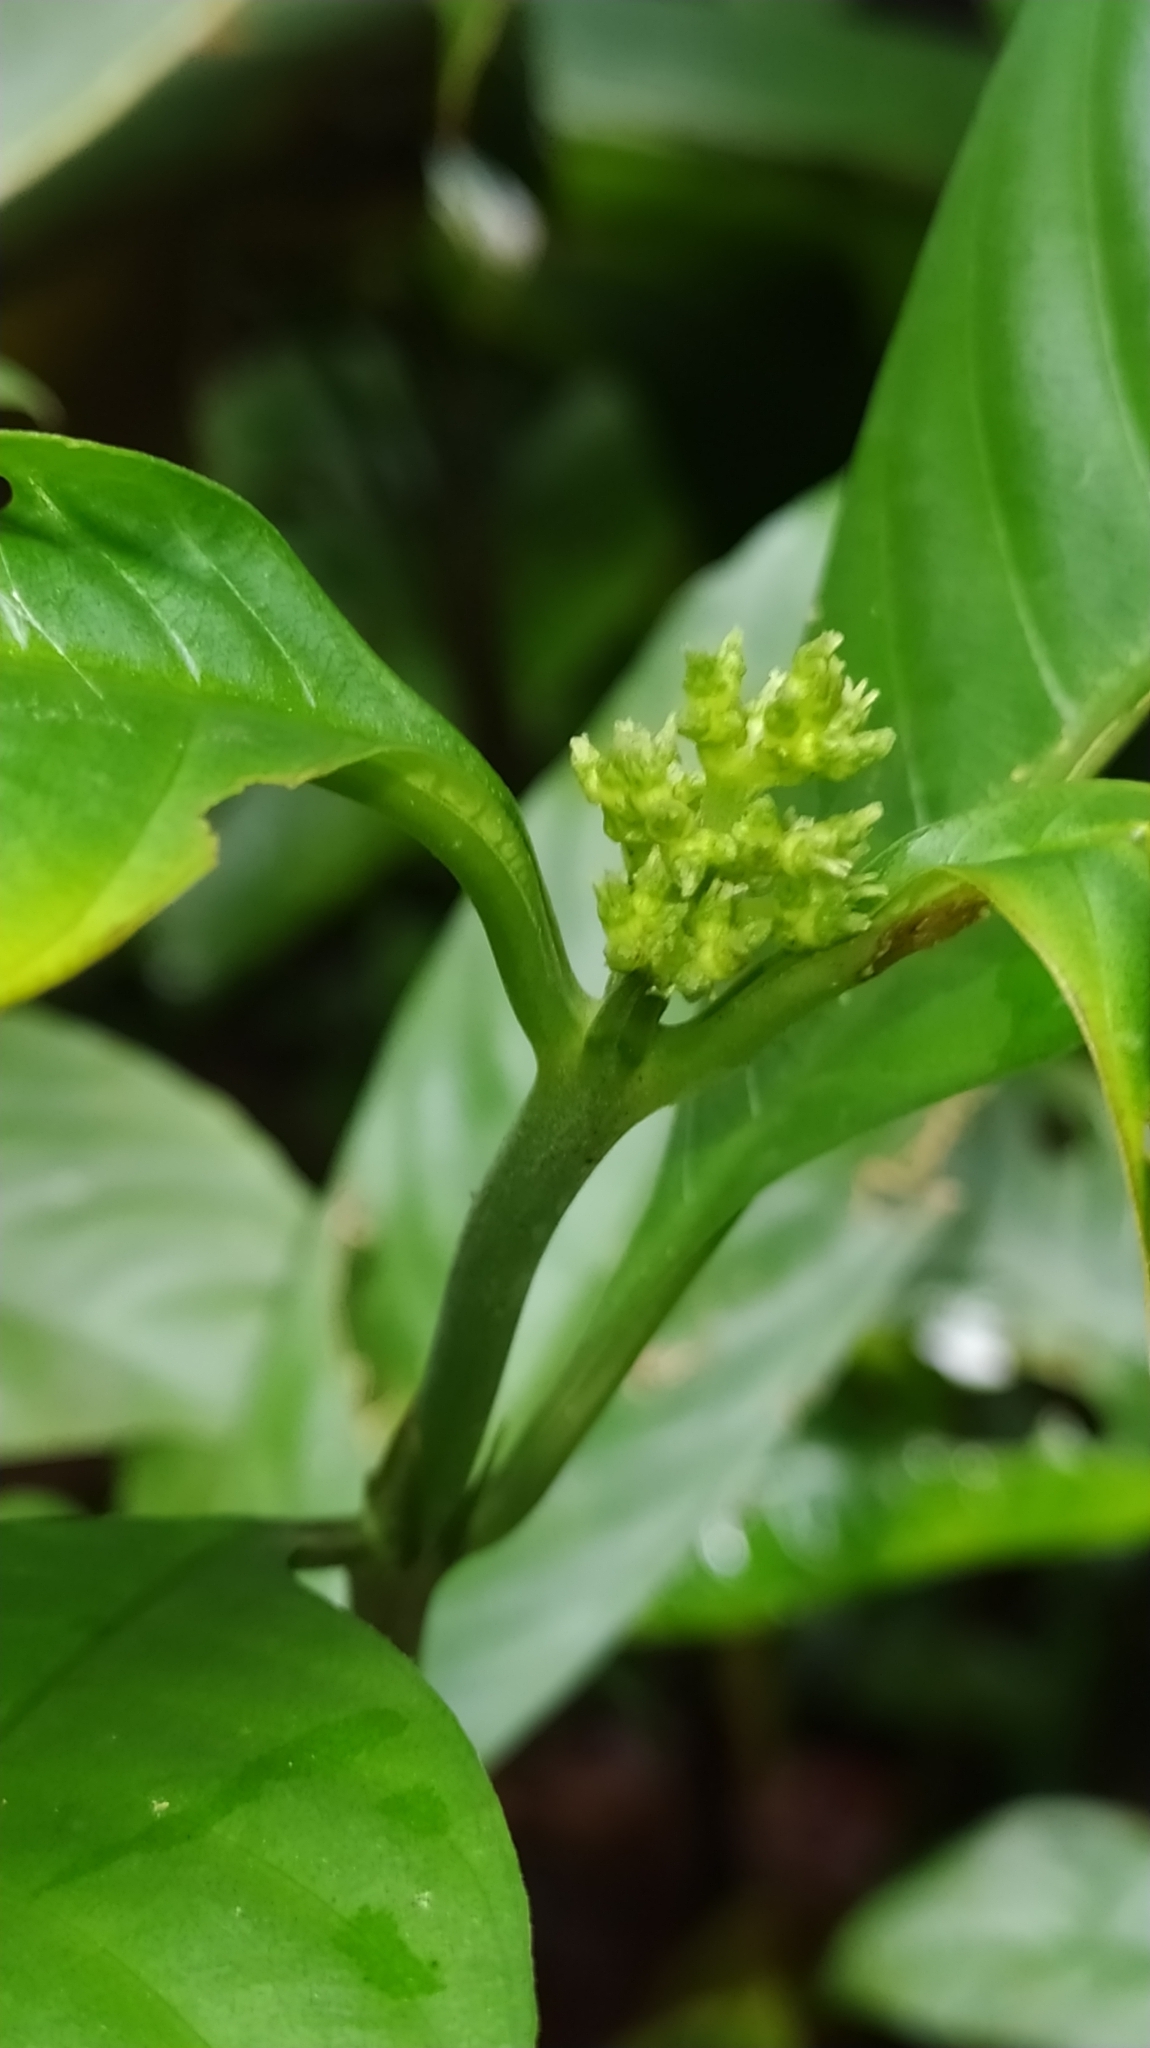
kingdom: Plantae
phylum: Tracheophyta
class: Magnoliopsida
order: Gentianales
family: Rubiaceae
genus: Palicourea
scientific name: Palicourea racemosa
